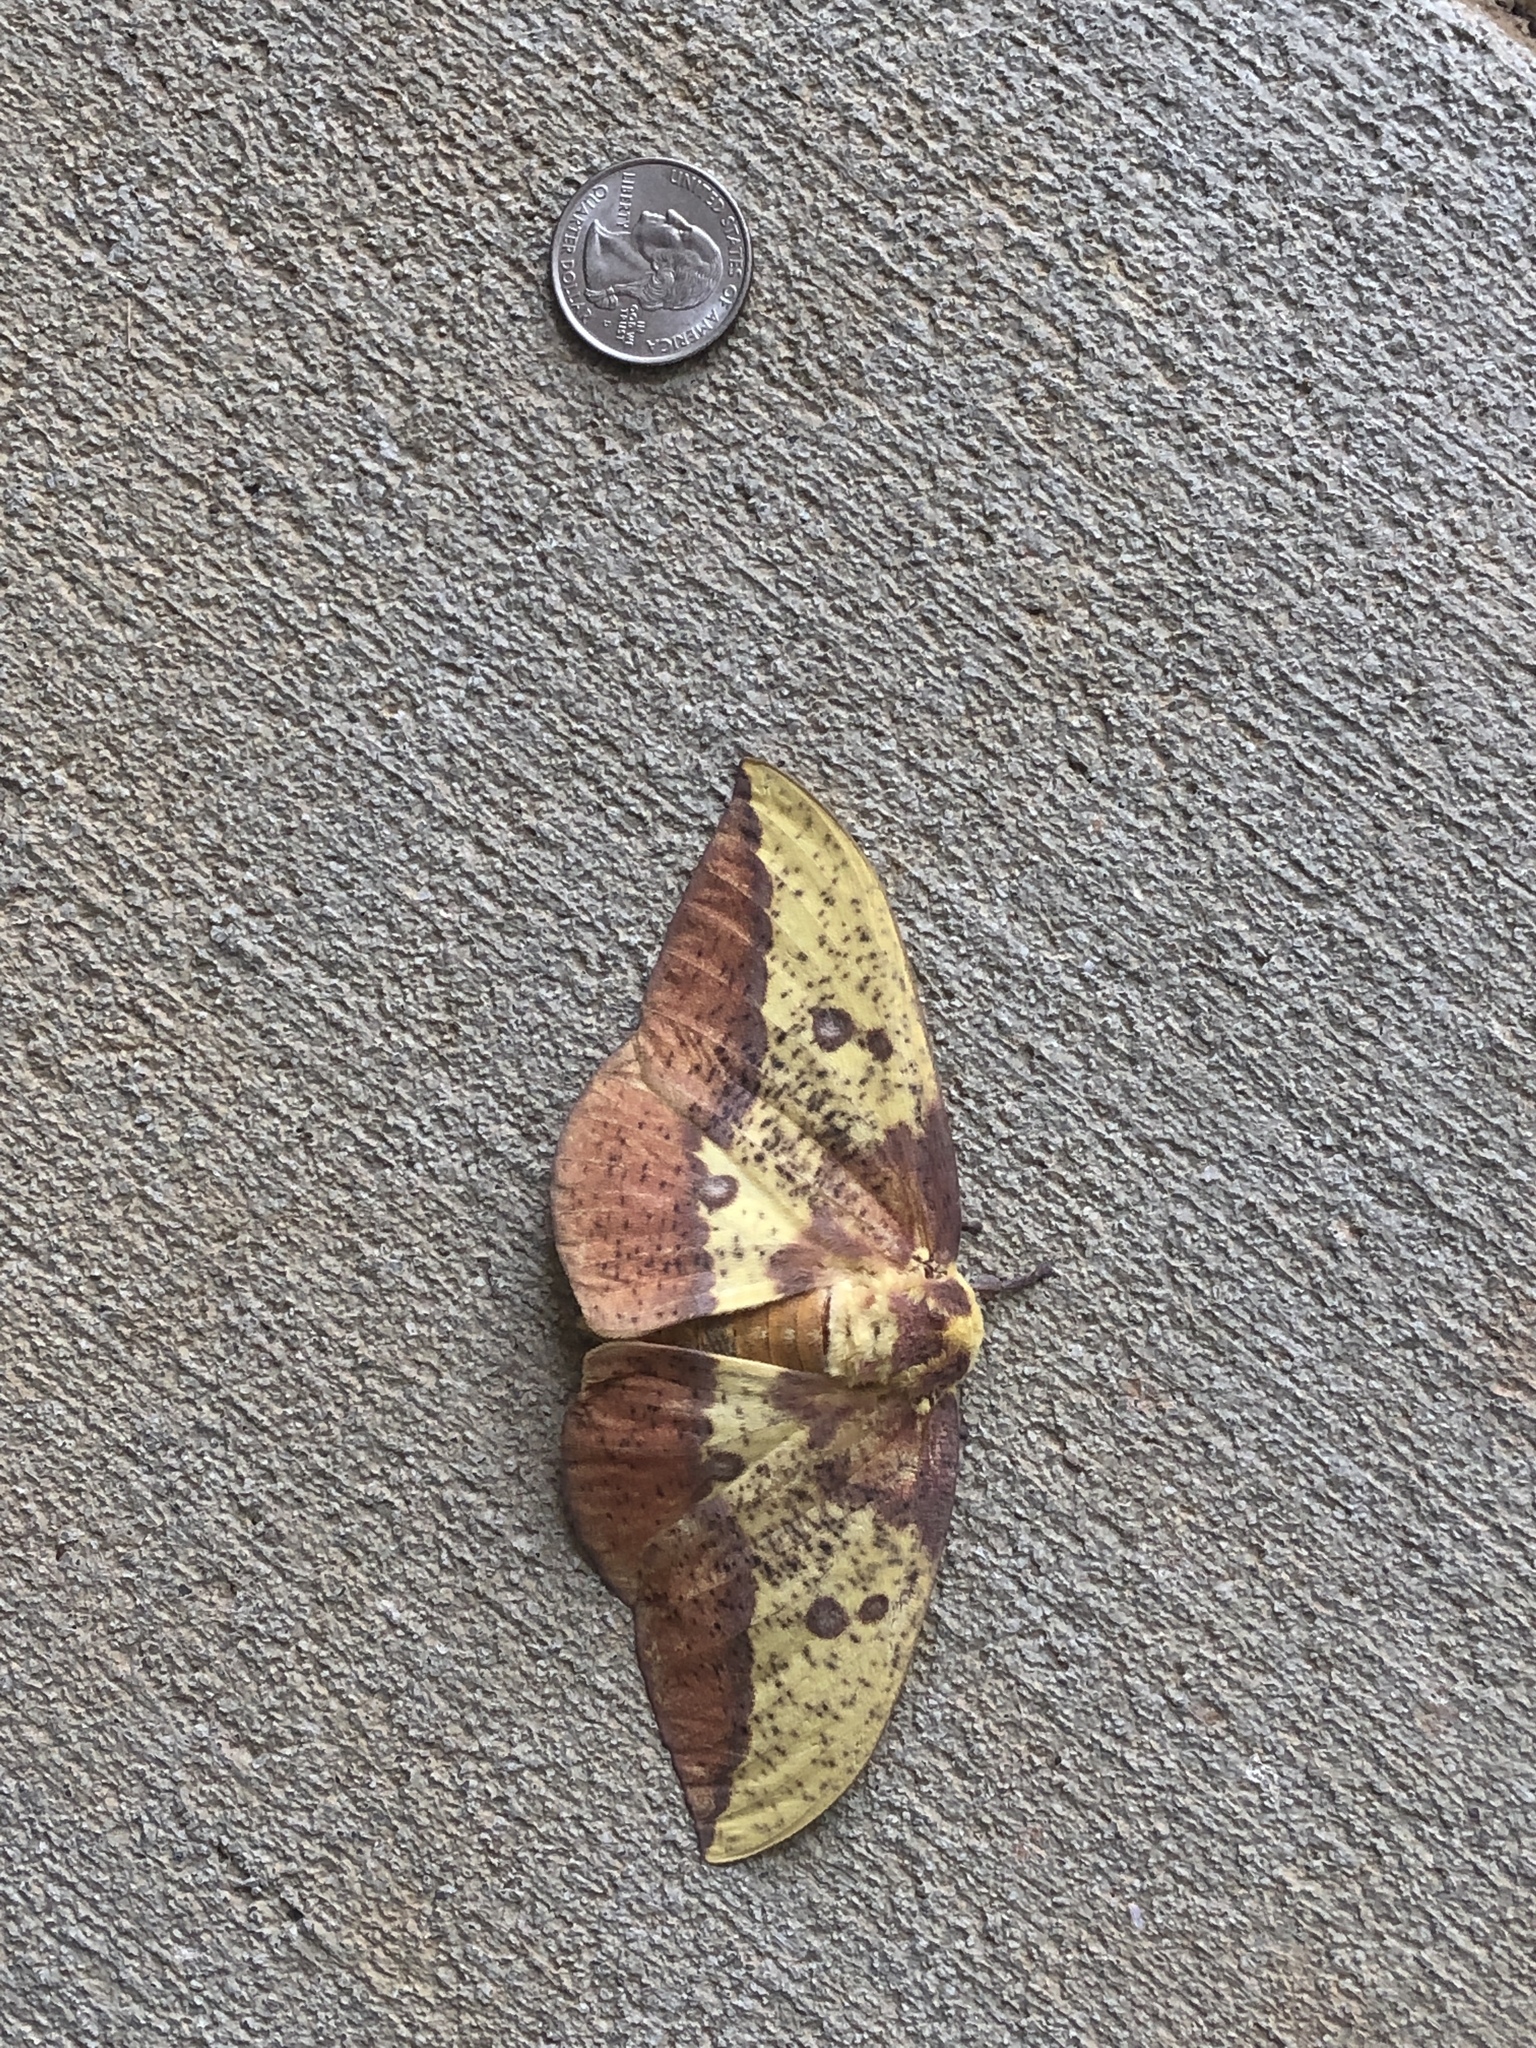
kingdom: Animalia
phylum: Arthropoda
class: Insecta
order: Lepidoptera
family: Saturniidae
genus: Eacles
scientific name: Eacles imperialis
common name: Imperial moth
